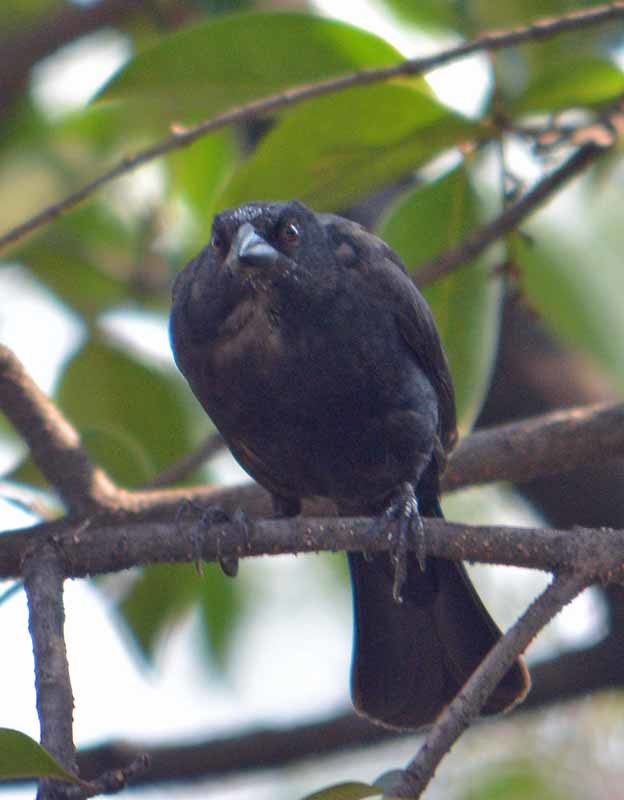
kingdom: Animalia
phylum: Chordata
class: Aves
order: Passeriformes
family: Icteridae
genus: Dives
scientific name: Dives dives
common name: Melodious blackbird
